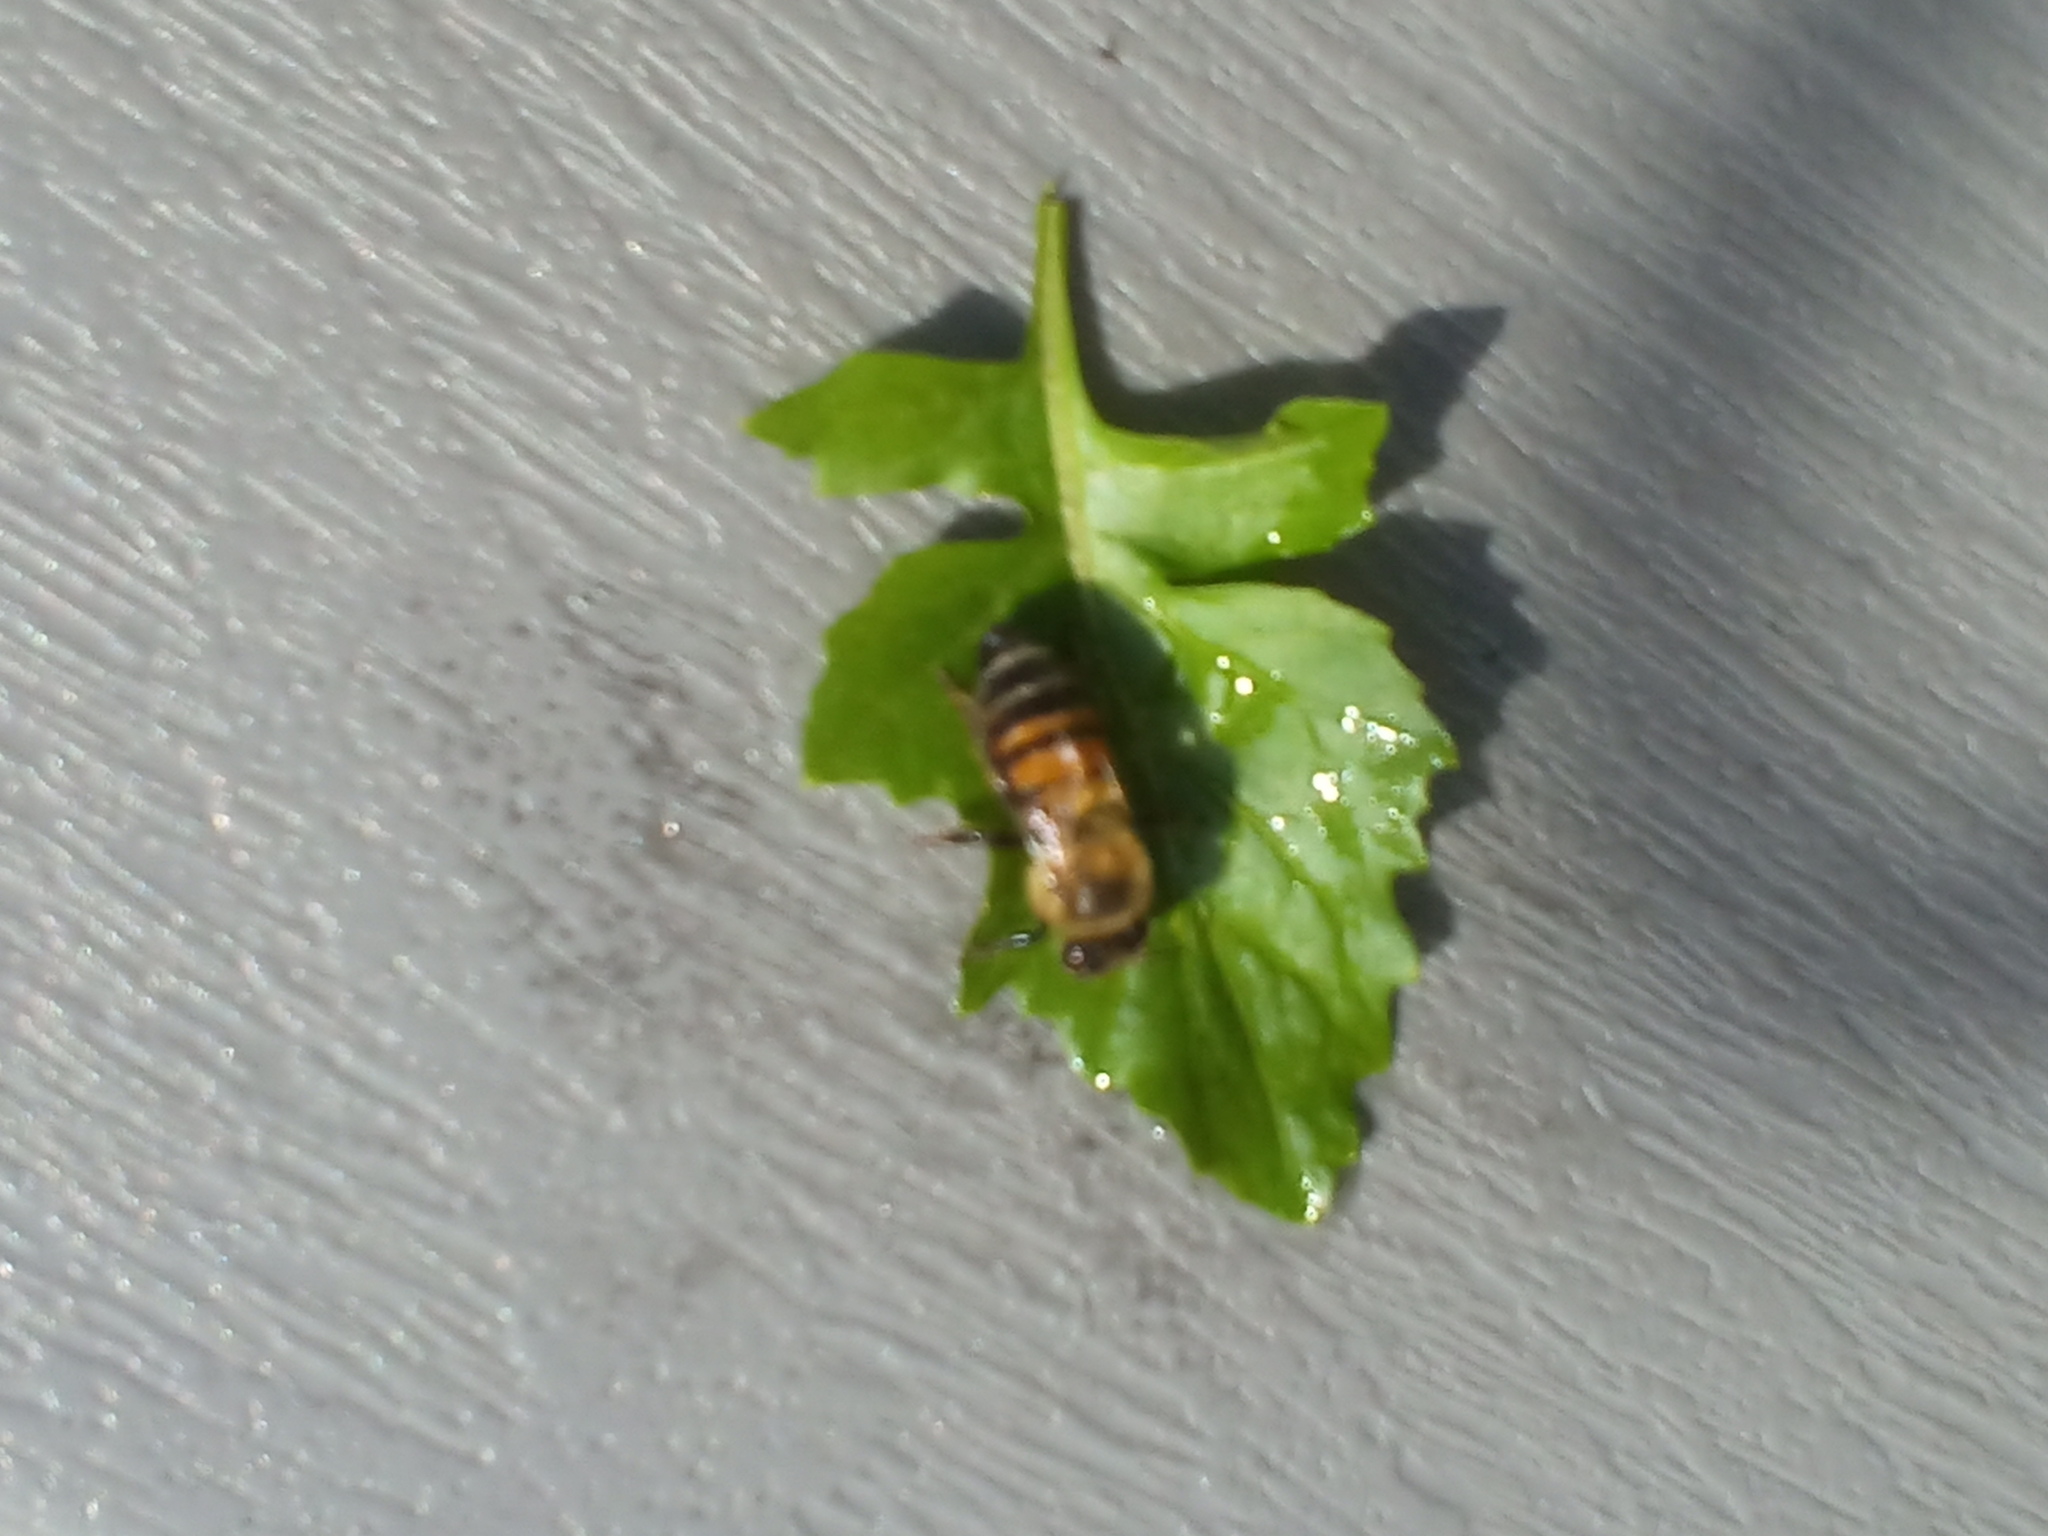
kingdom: Animalia
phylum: Arthropoda
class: Insecta
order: Hymenoptera
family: Apidae
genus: Apis
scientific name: Apis mellifera
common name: Honey bee
